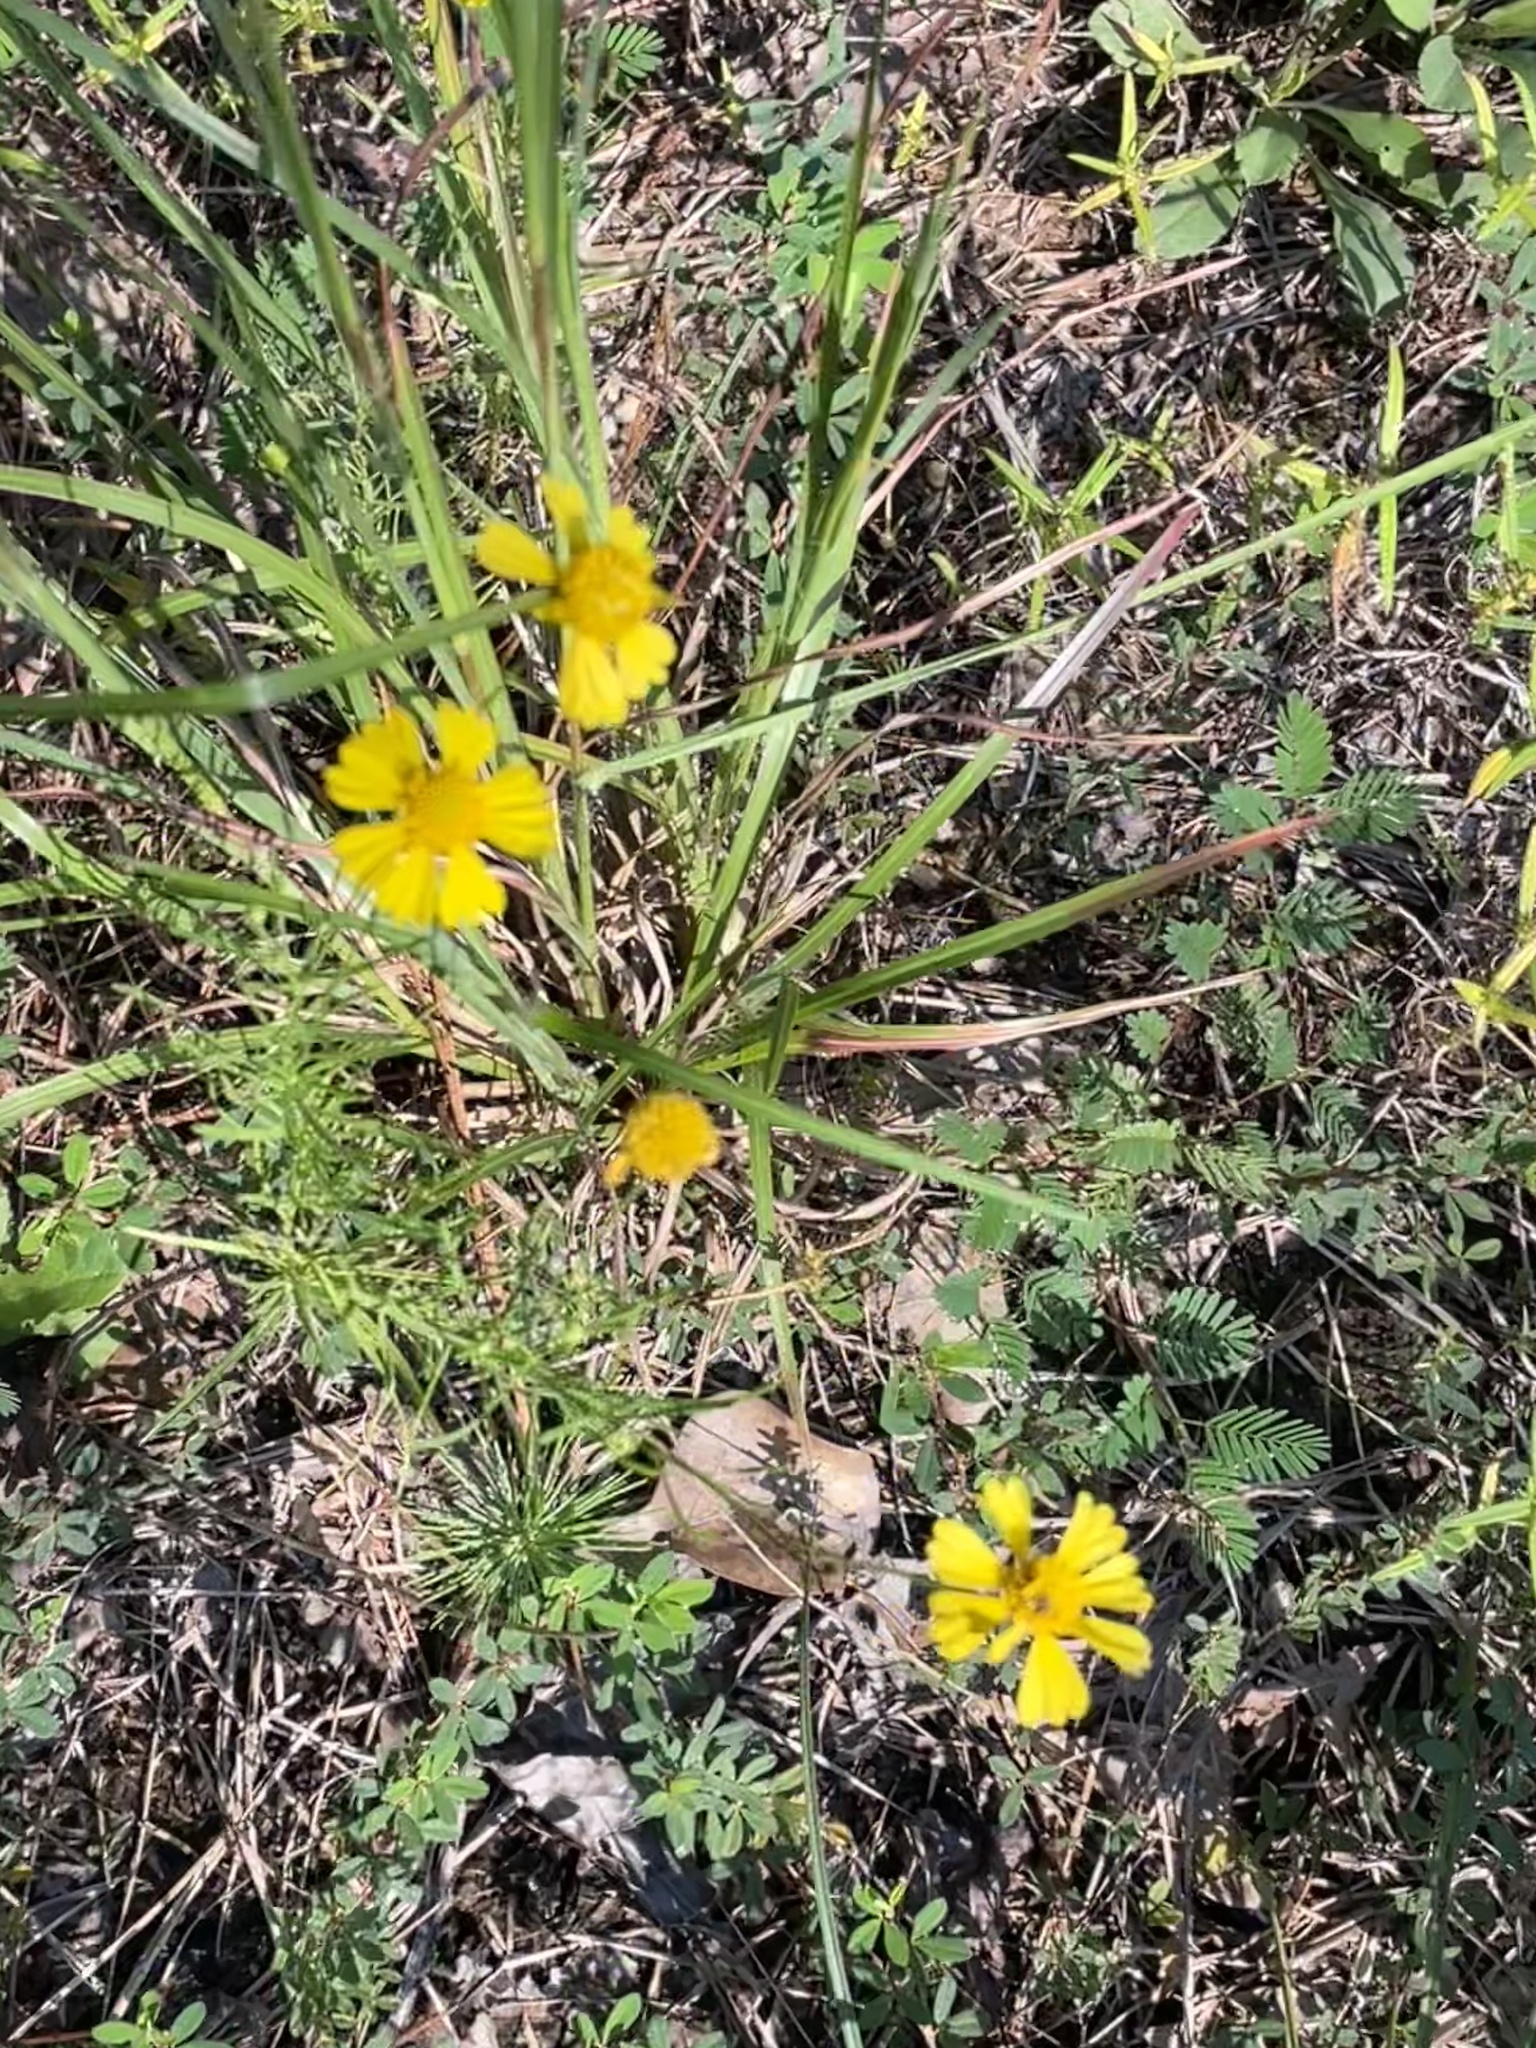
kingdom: Plantae
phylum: Tracheophyta
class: Magnoliopsida
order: Asterales
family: Asteraceae
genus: Helenium
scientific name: Helenium amarum
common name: Bitter sneezeweed
